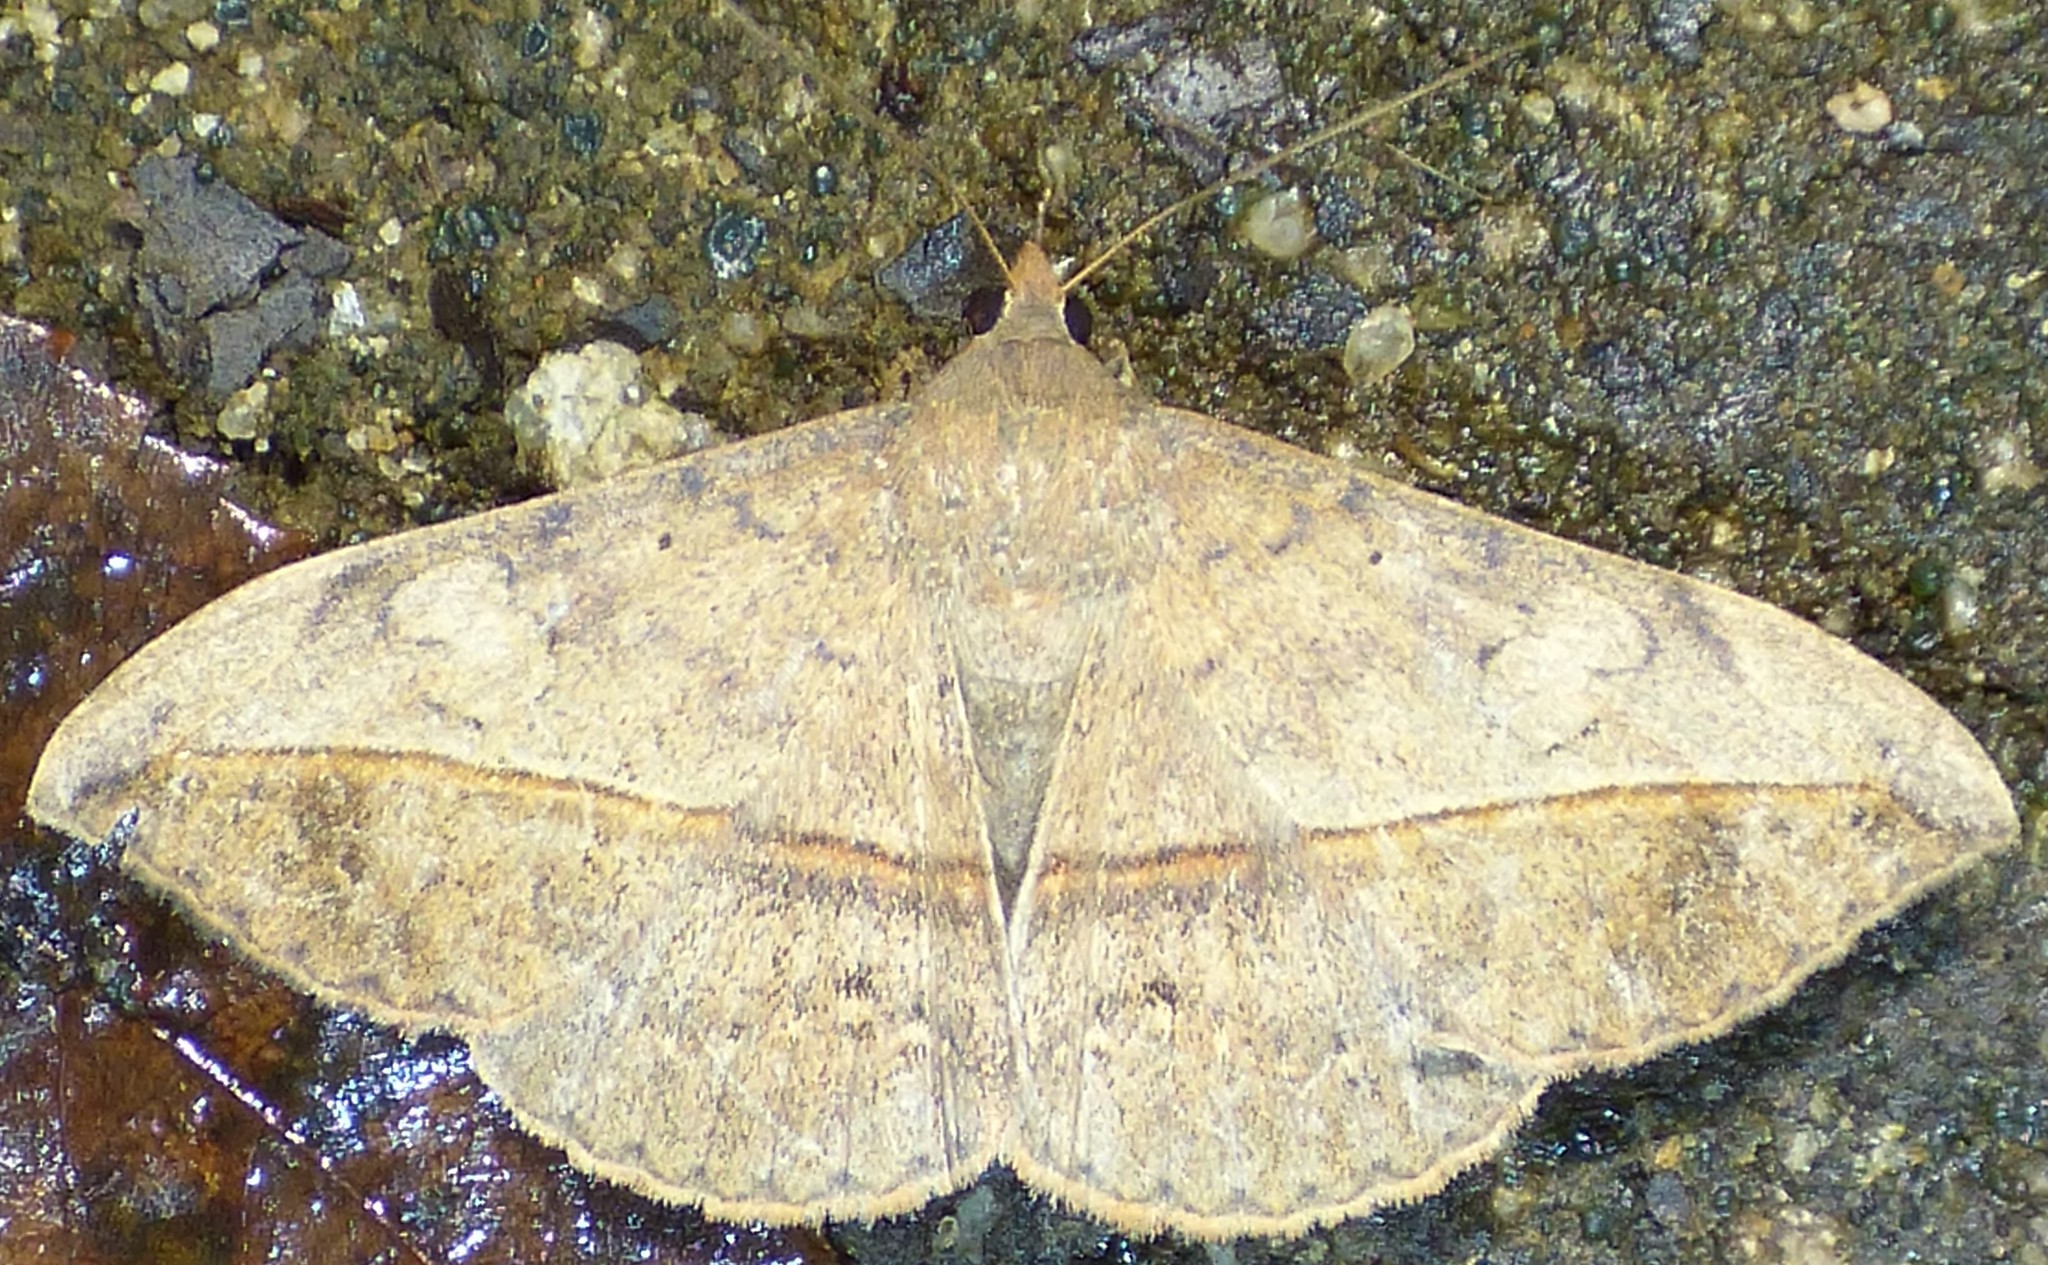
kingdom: Animalia
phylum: Arthropoda
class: Insecta
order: Lepidoptera
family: Erebidae
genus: Anticarsia
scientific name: Anticarsia gemmatalis
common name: Cutworm moth
